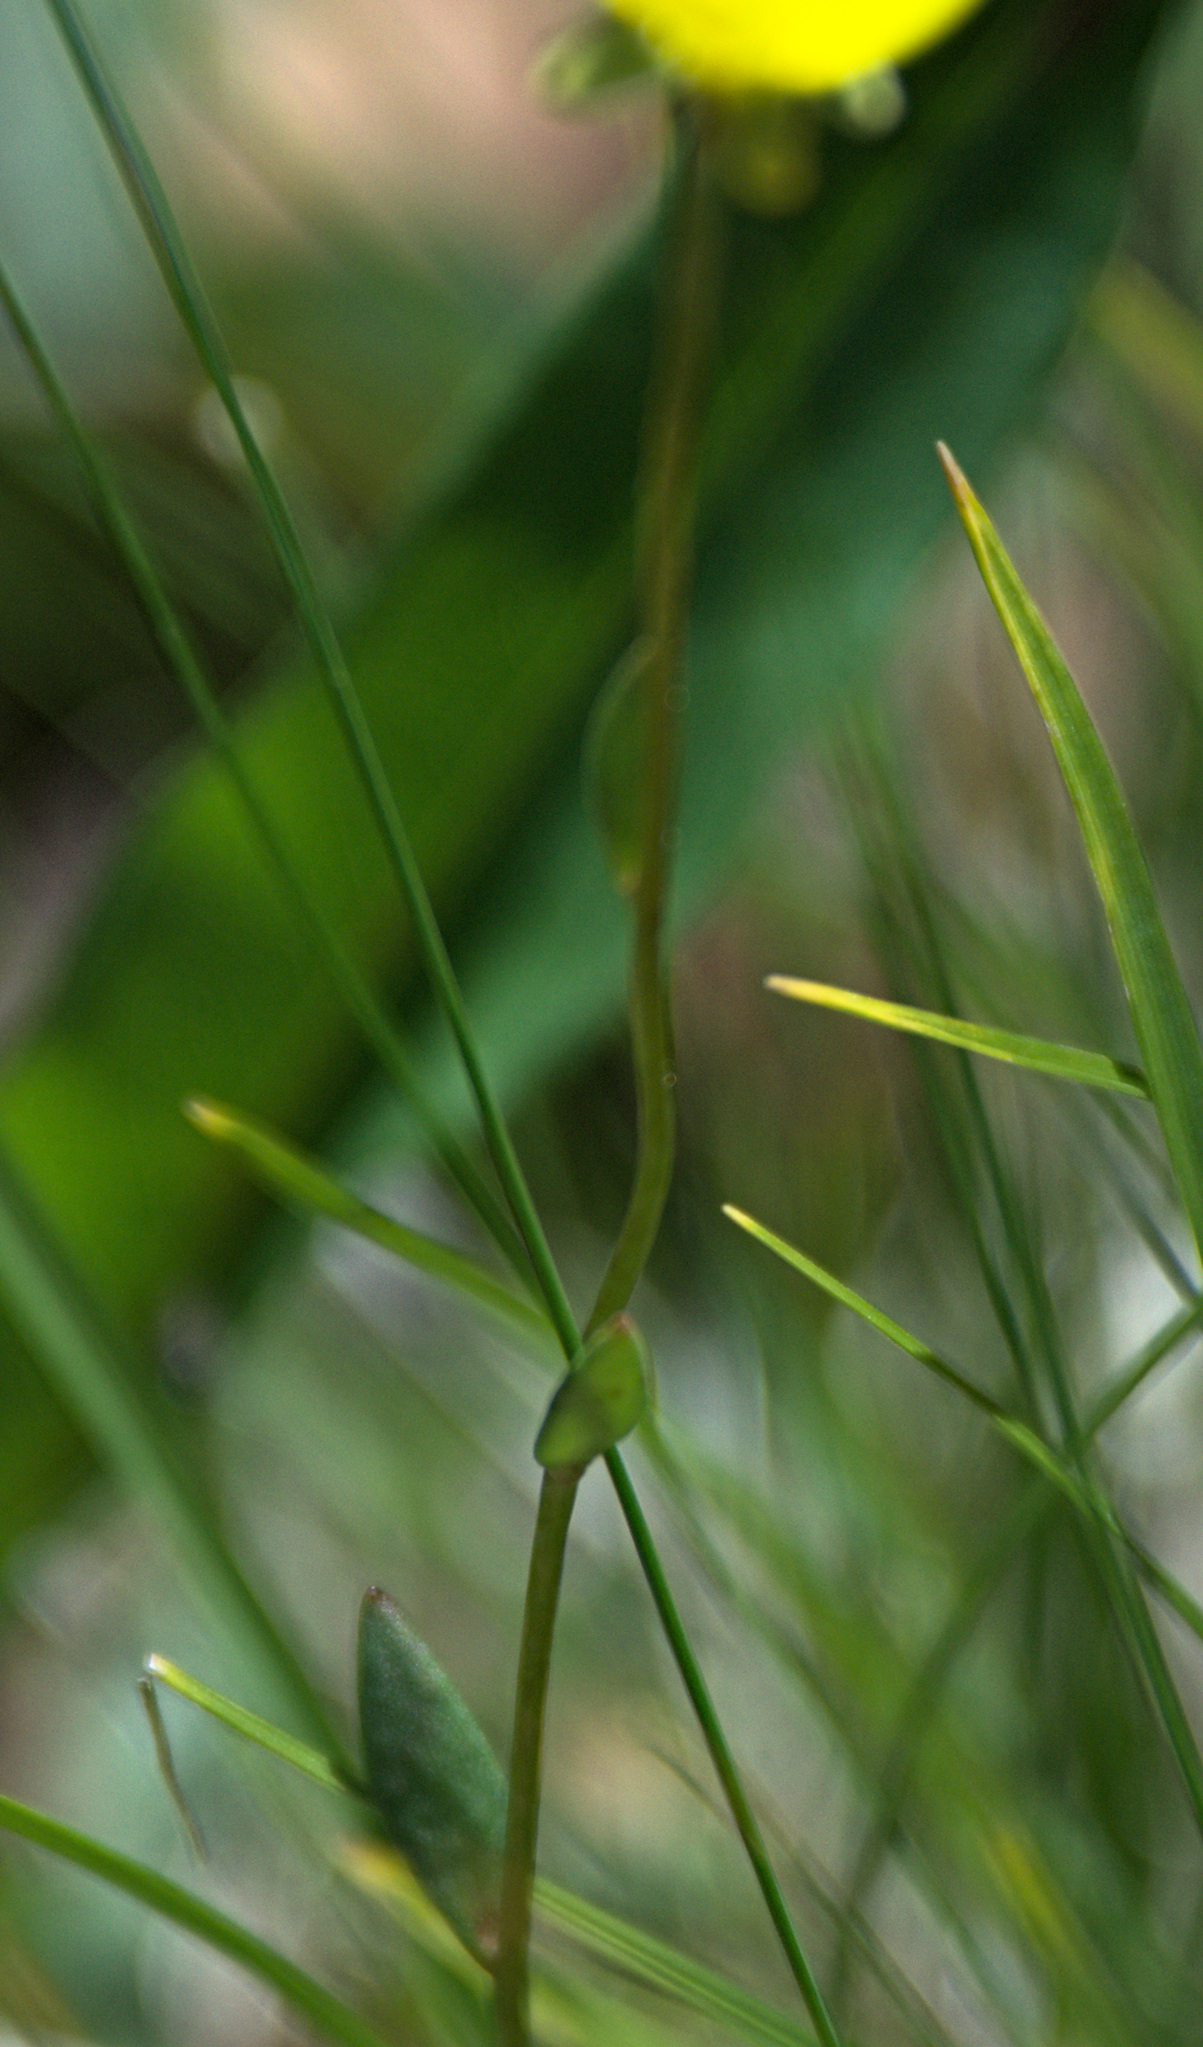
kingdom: Plantae
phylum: Tracheophyta
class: Magnoliopsida
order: Saxifragales
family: Saxifragaceae
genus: Saxifraga
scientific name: Saxifraga hirculus
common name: Yellow marsh saxifrage
